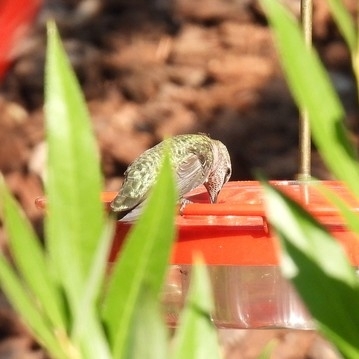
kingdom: Animalia
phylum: Chordata
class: Aves
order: Apodiformes
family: Trochilidae
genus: Calypte
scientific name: Calypte anna
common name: Anna's hummingbird
